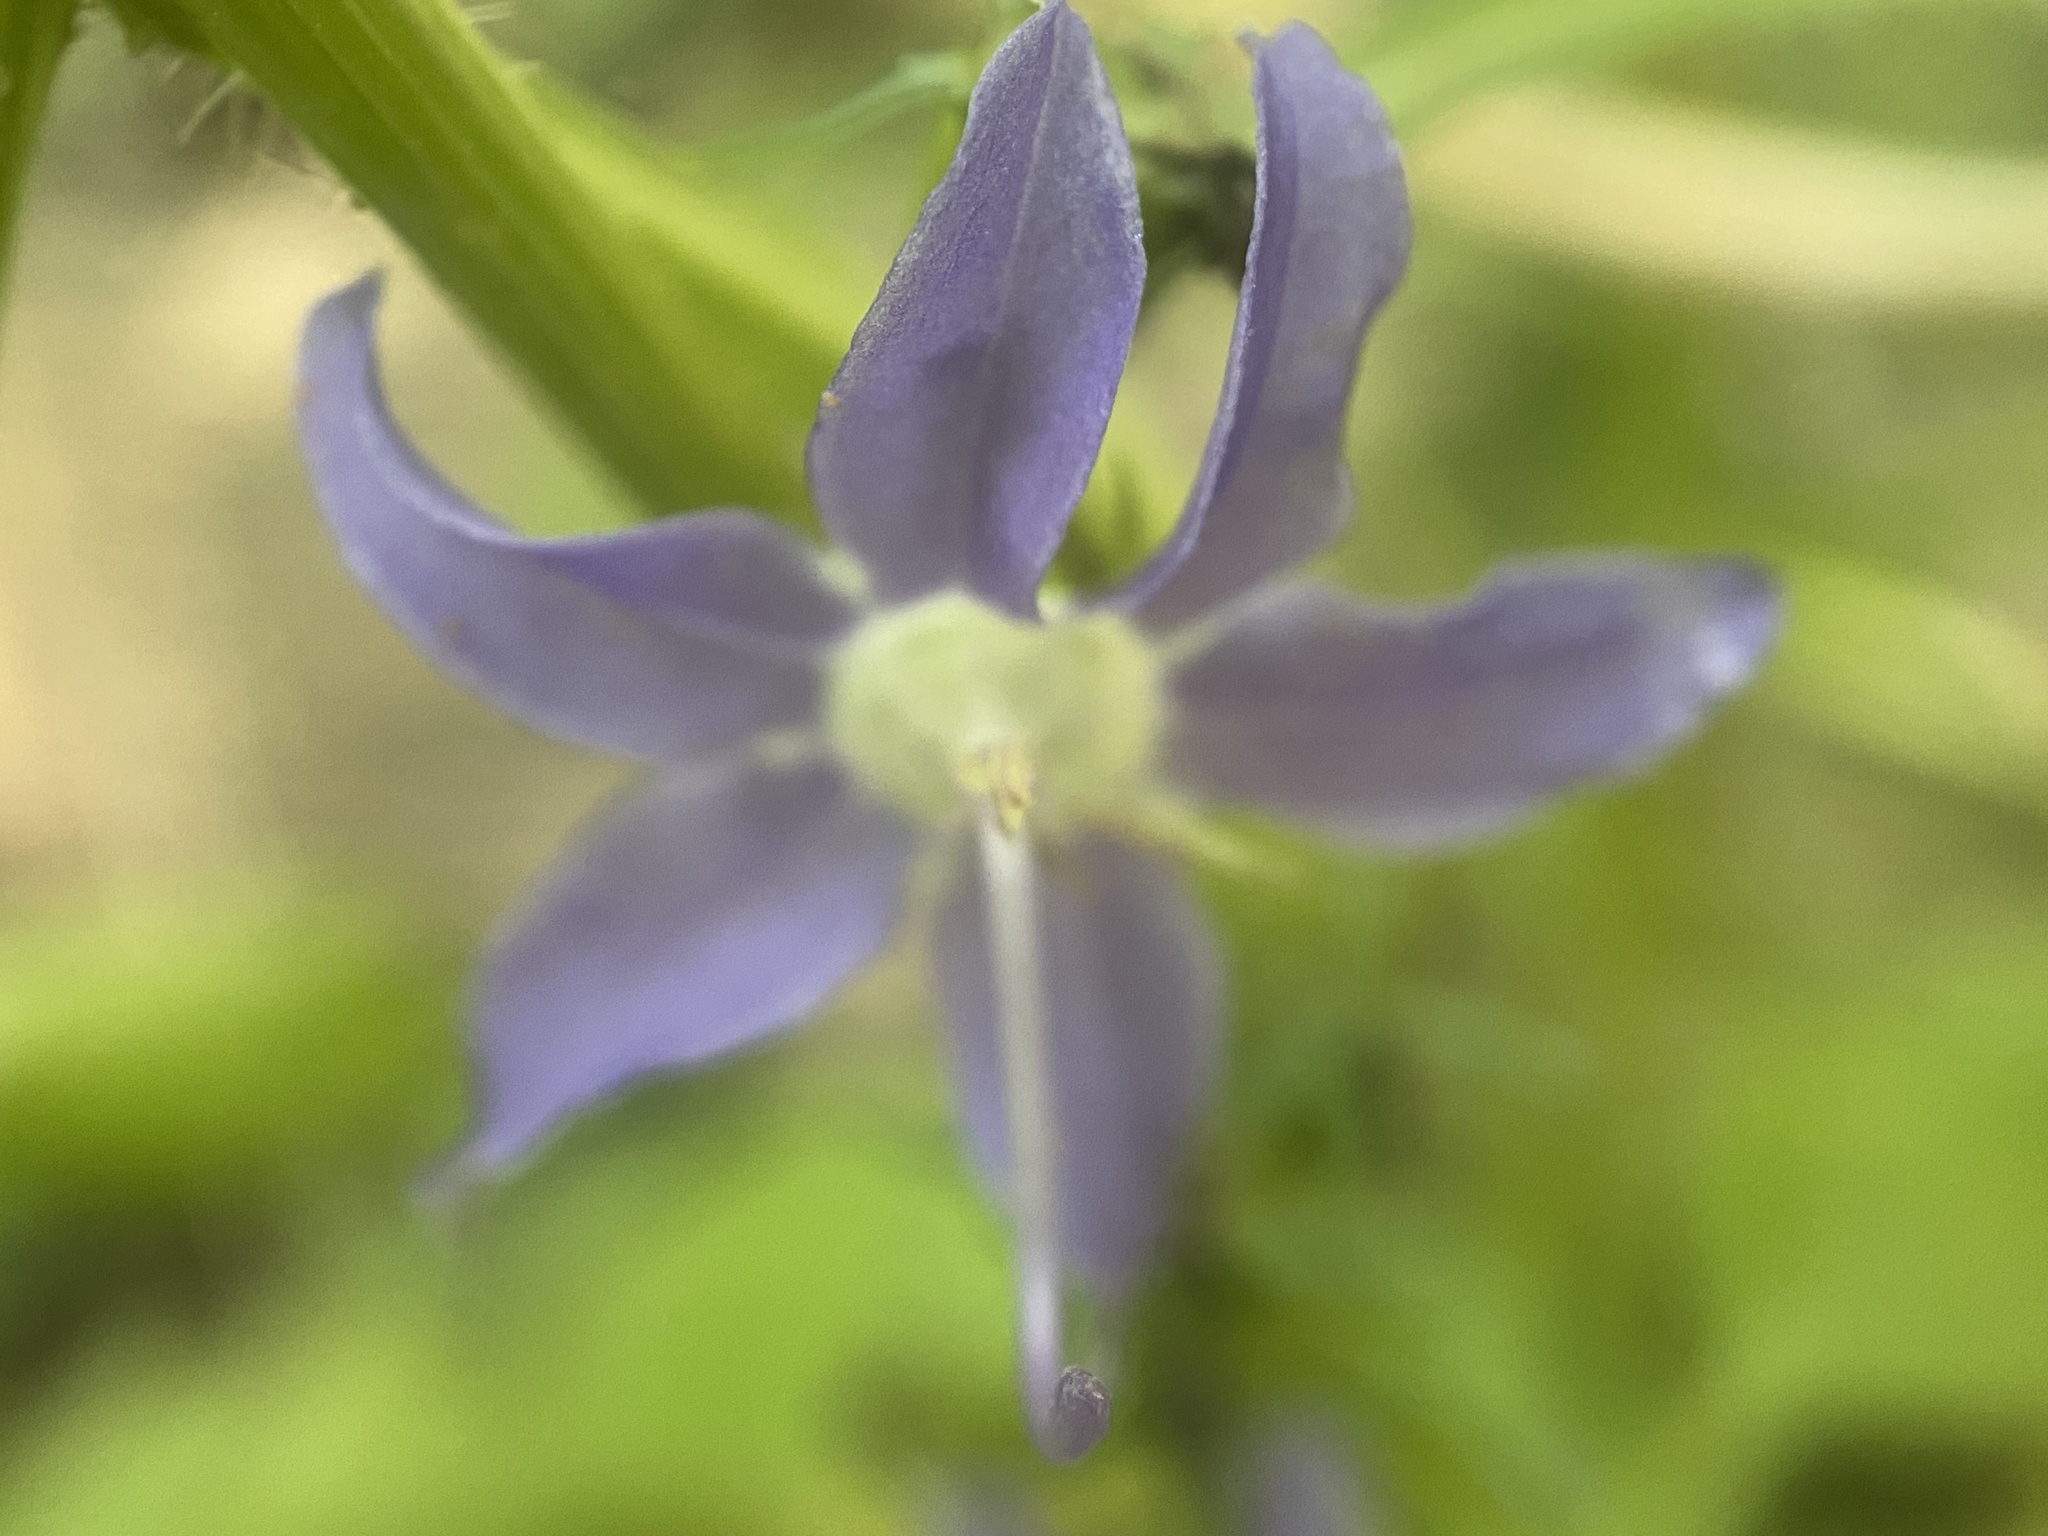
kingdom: Plantae
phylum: Tracheophyta
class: Magnoliopsida
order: Asterales
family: Campanulaceae
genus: Campanulastrum
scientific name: Campanulastrum americanum
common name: American bellflower
